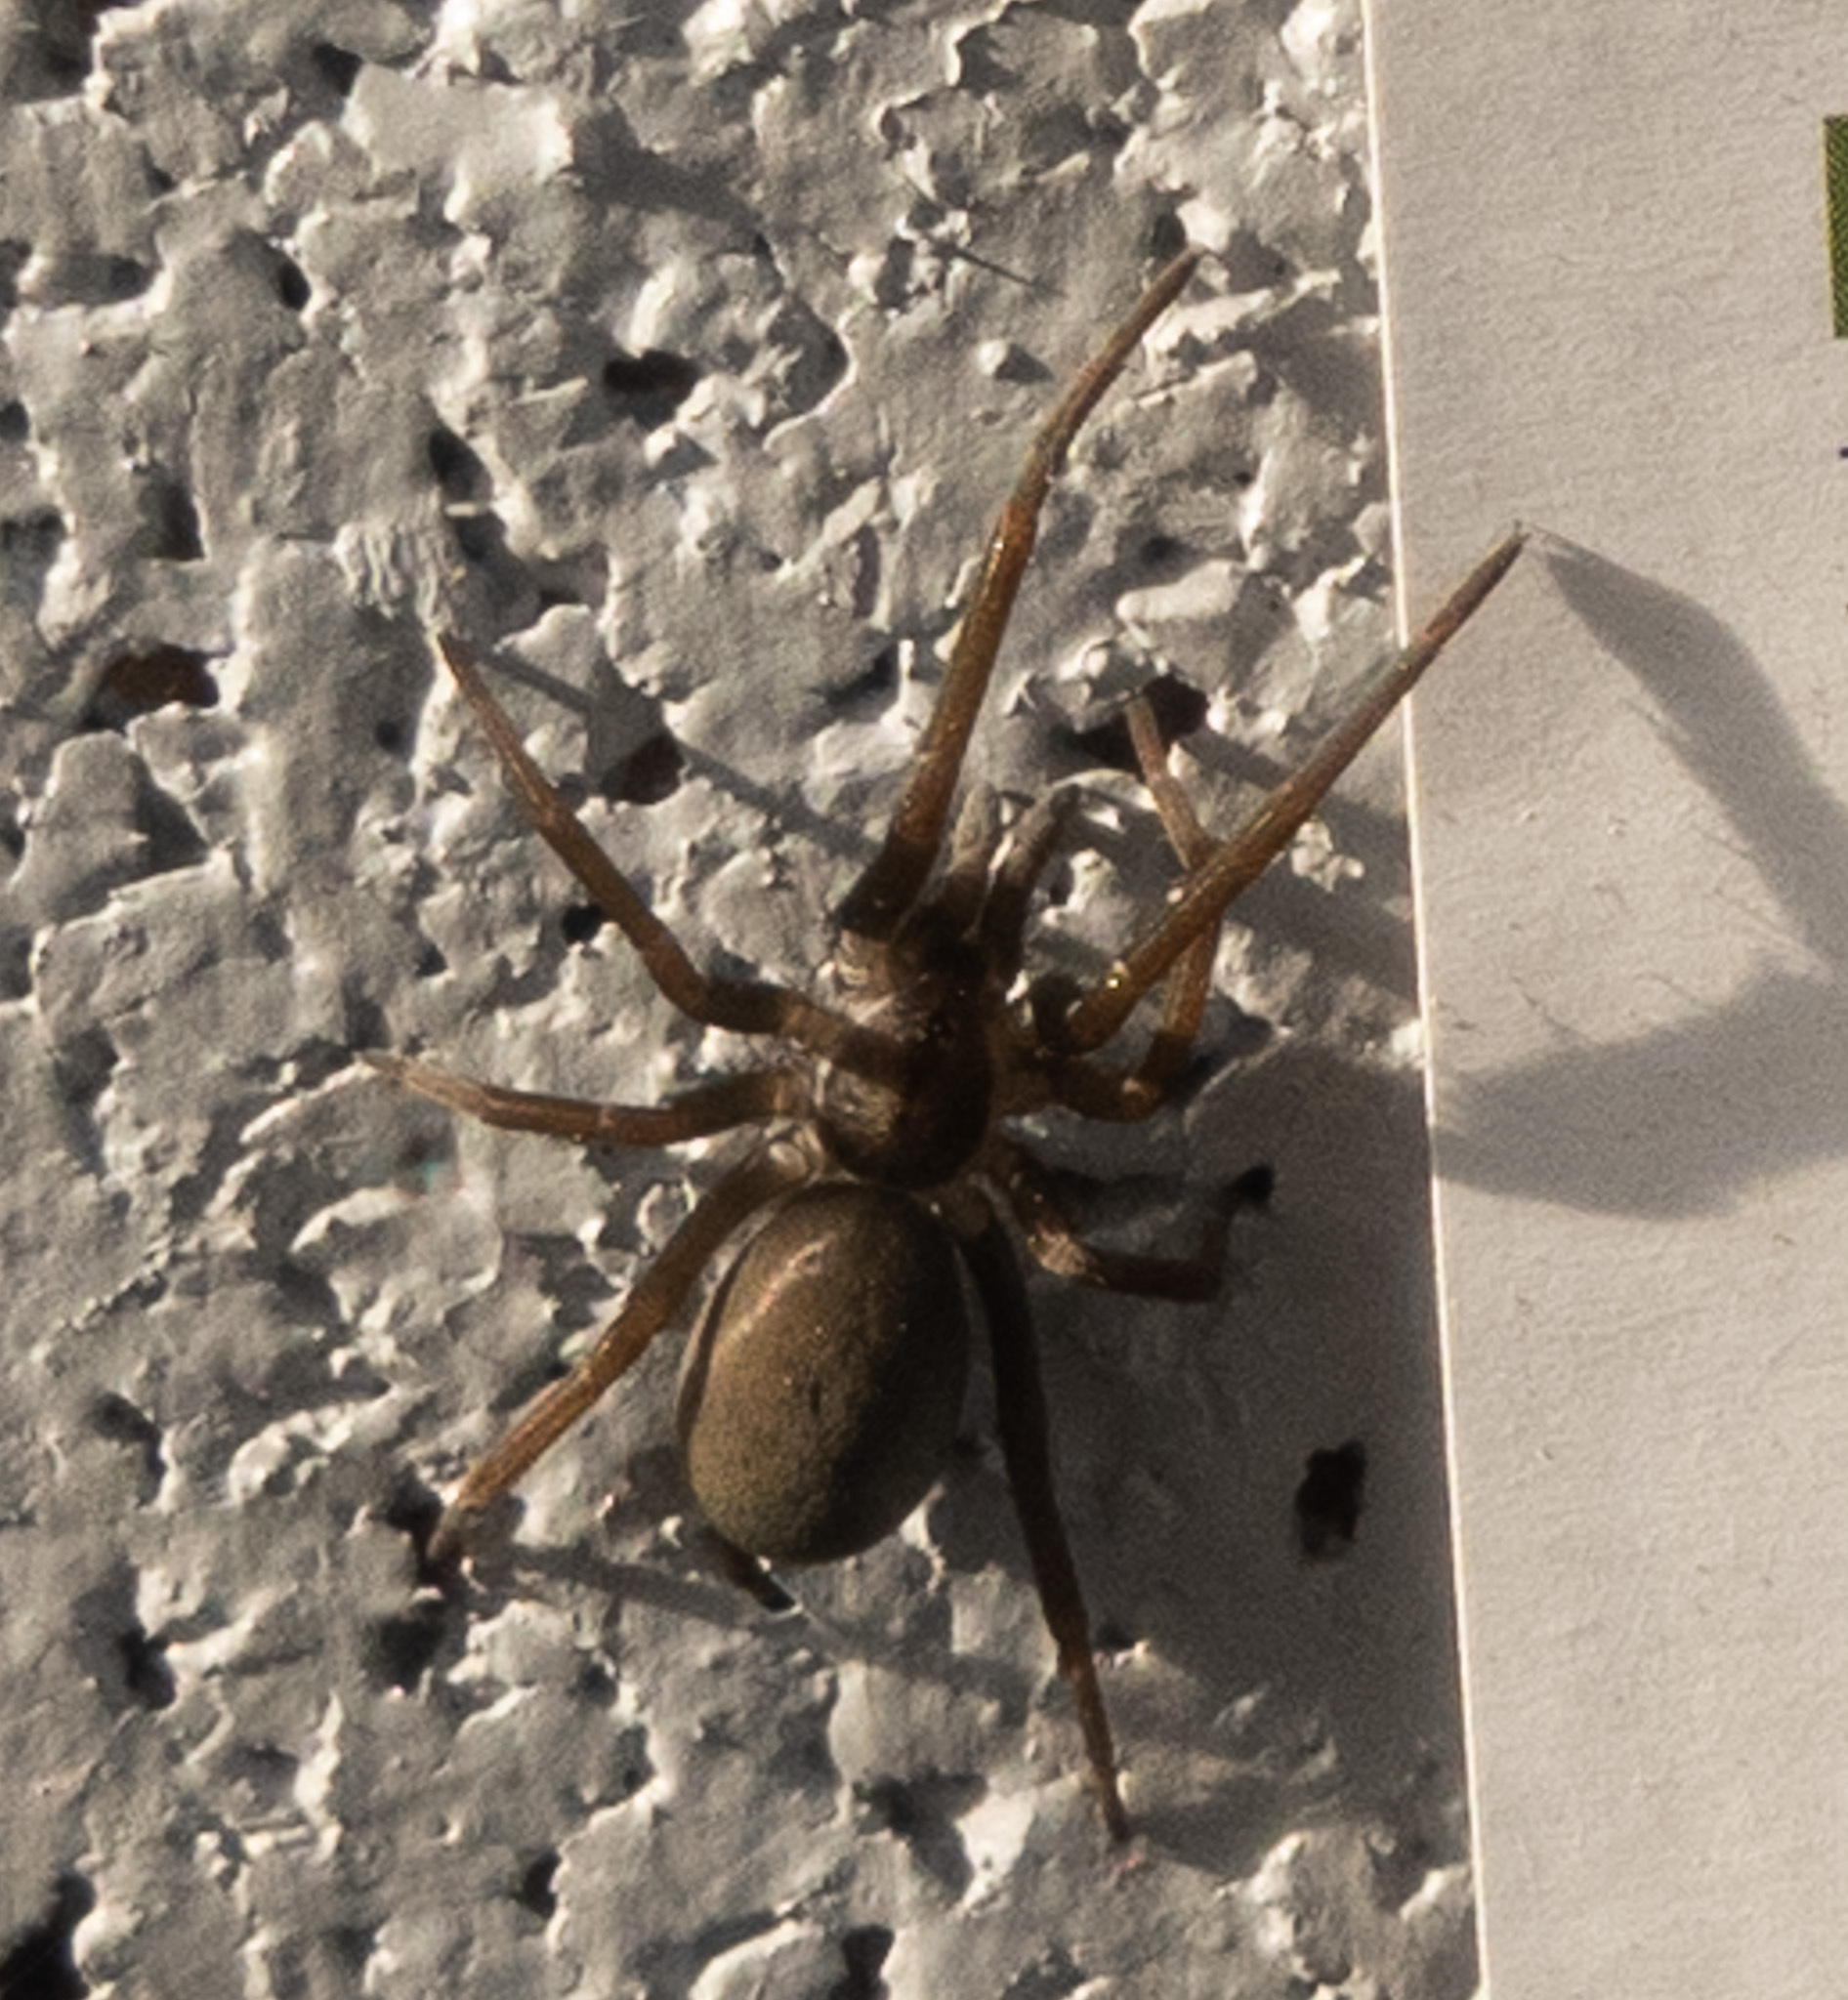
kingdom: Animalia
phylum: Arthropoda
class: Arachnida
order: Araneae
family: Filistatidae
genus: Kukulcania
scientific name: Kukulcania hibernalis
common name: Crevice weaver
